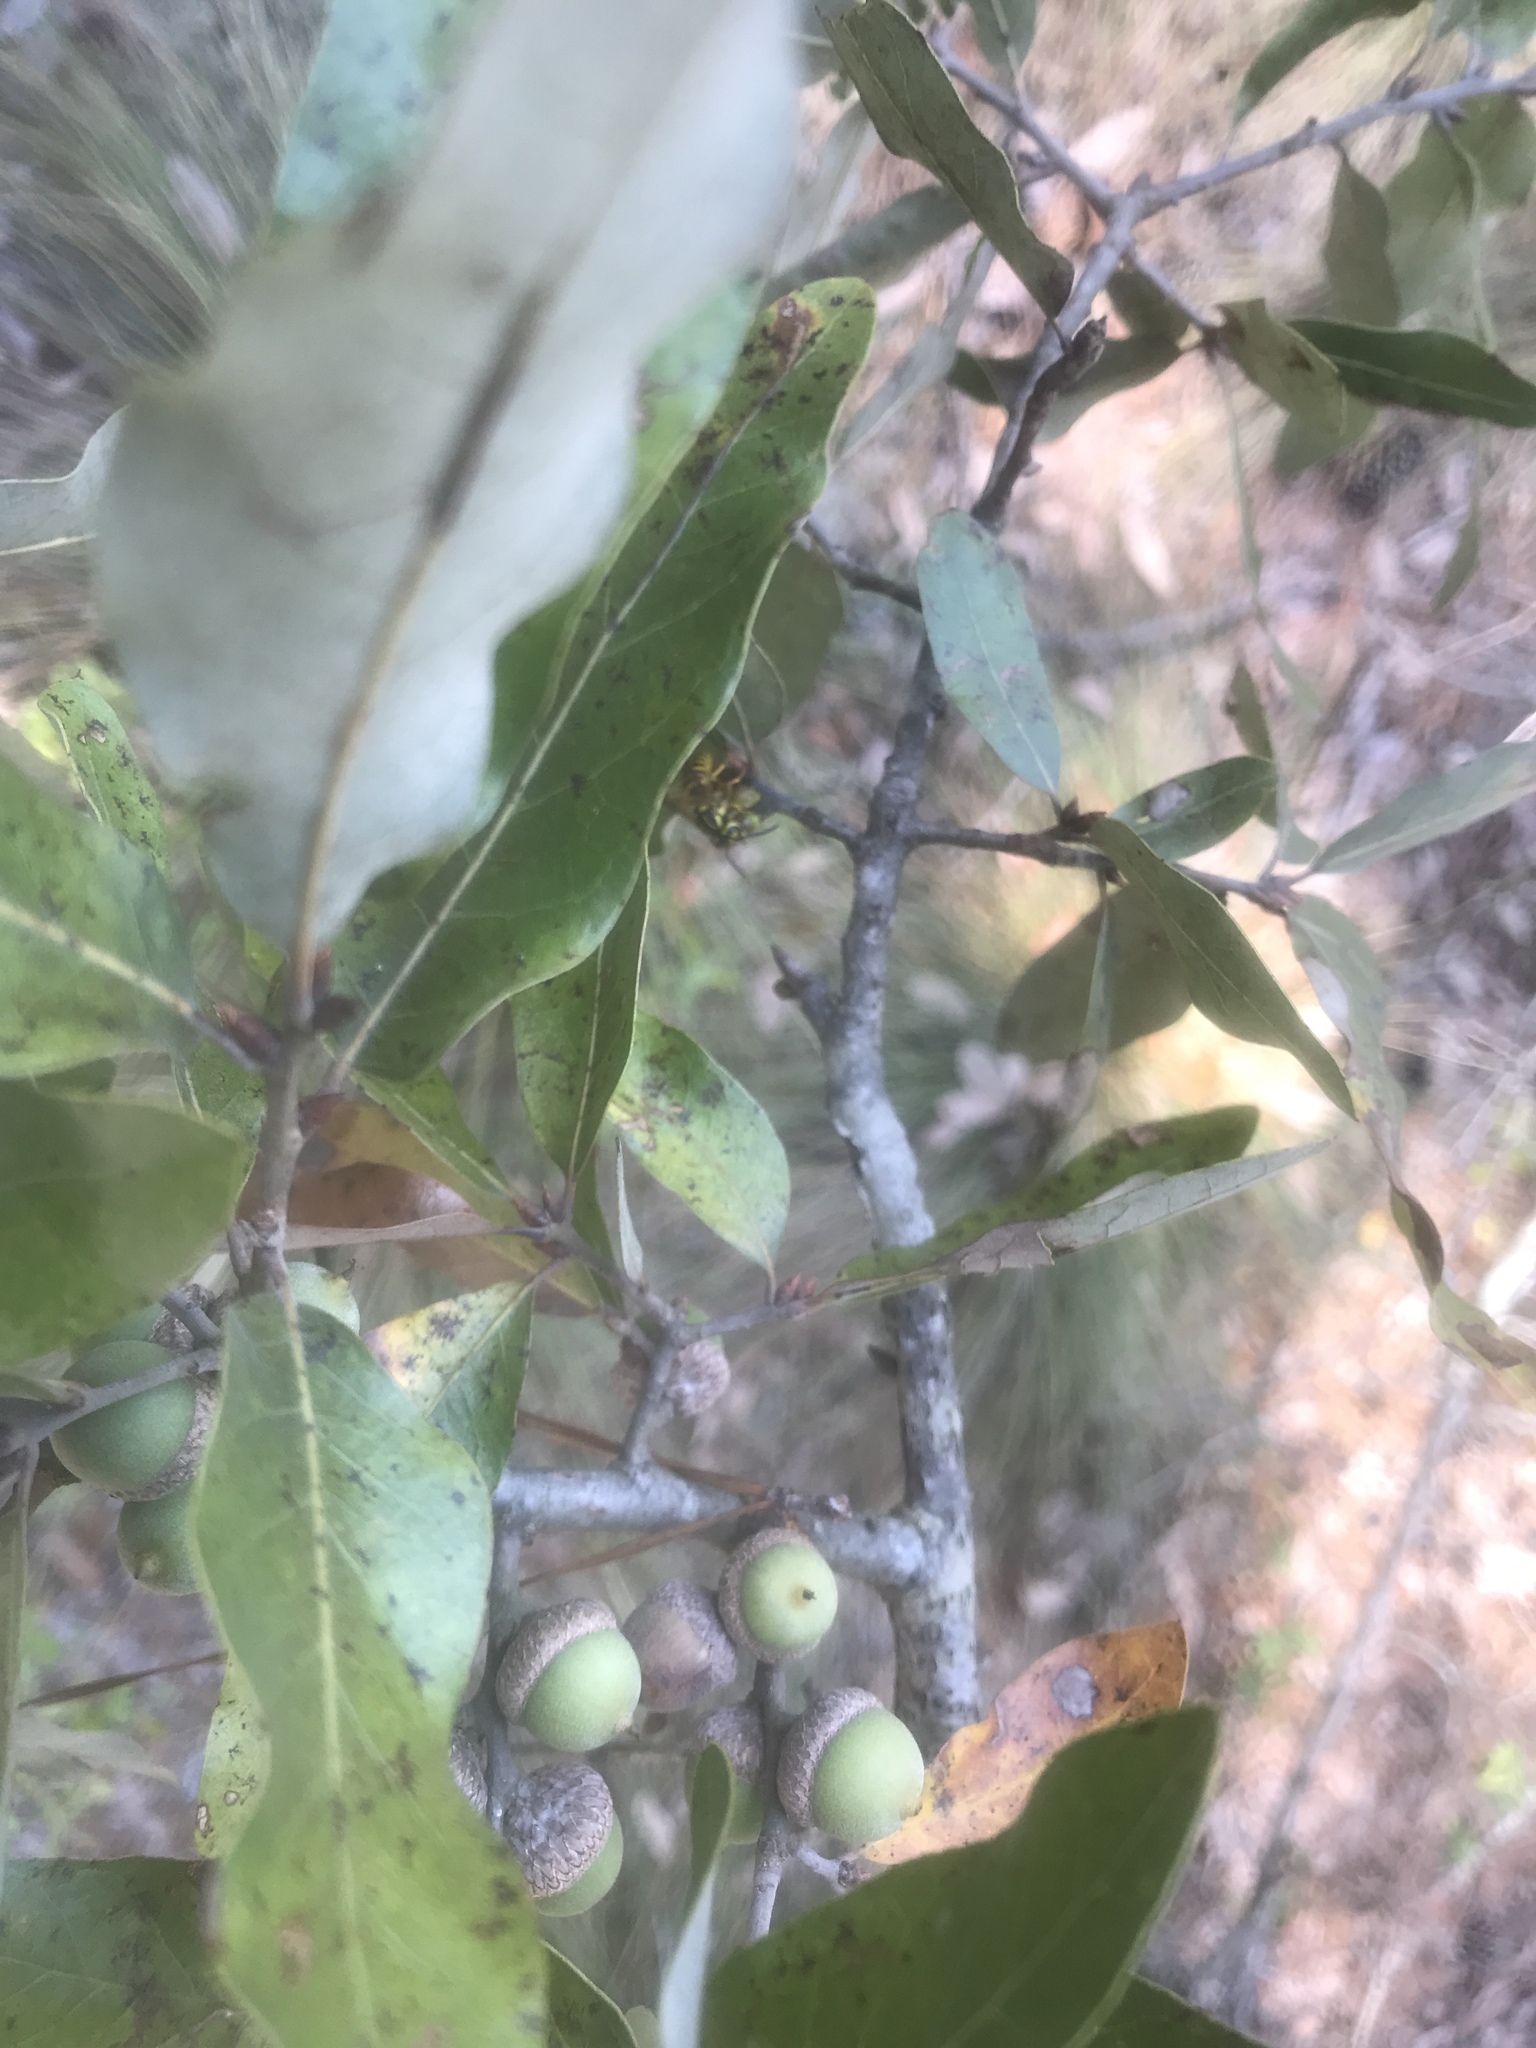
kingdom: Plantae
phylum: Tracheophyta
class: Magnoliopsida
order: Fagales
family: Fagaceae
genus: Quercus
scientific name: Quercus incana
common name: Bluejack oak
